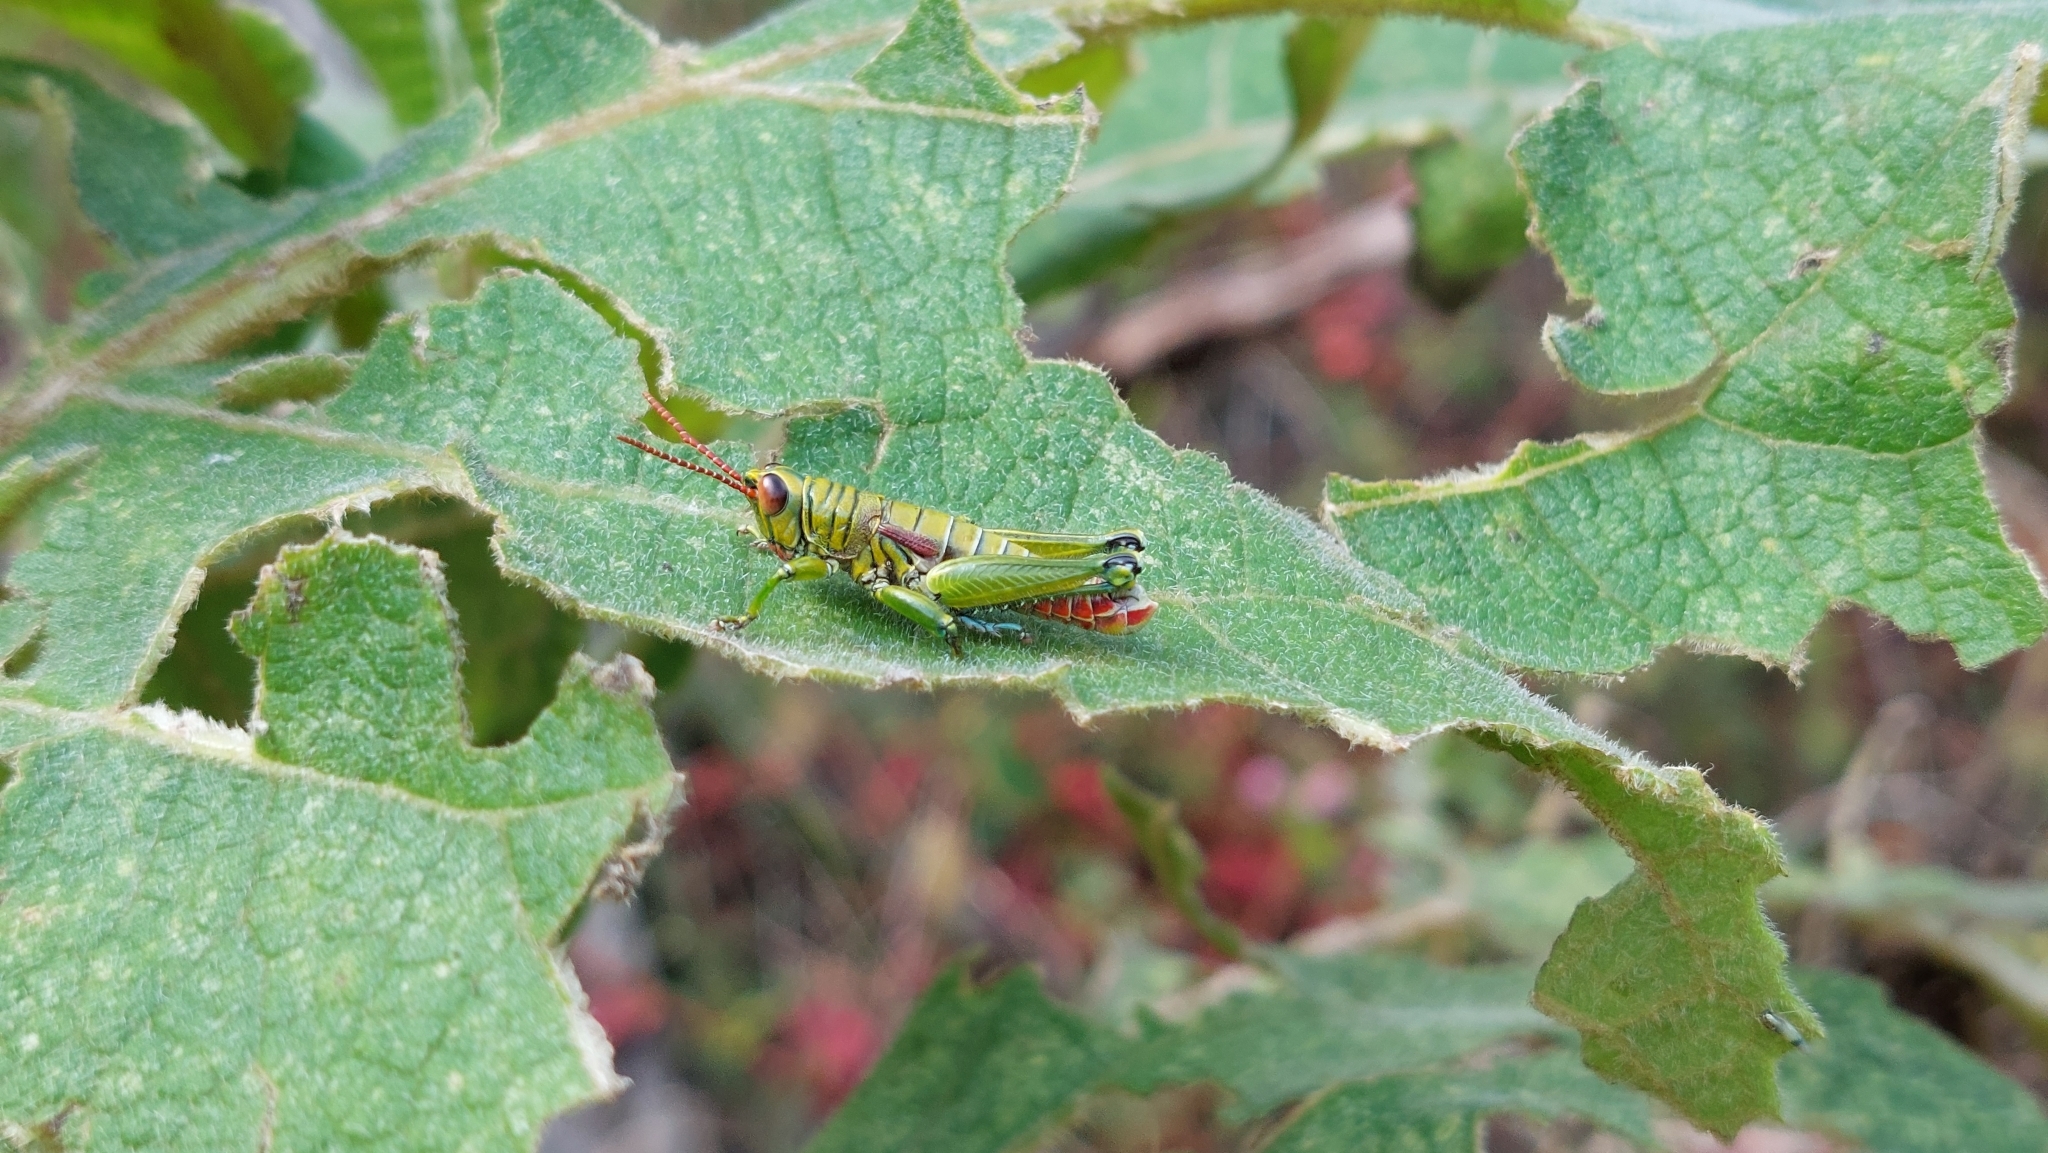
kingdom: Animalia
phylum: Arthropoda
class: Insecta
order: Orthoptera
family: Acrididae
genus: Agesander
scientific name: Agesander ruficornis
